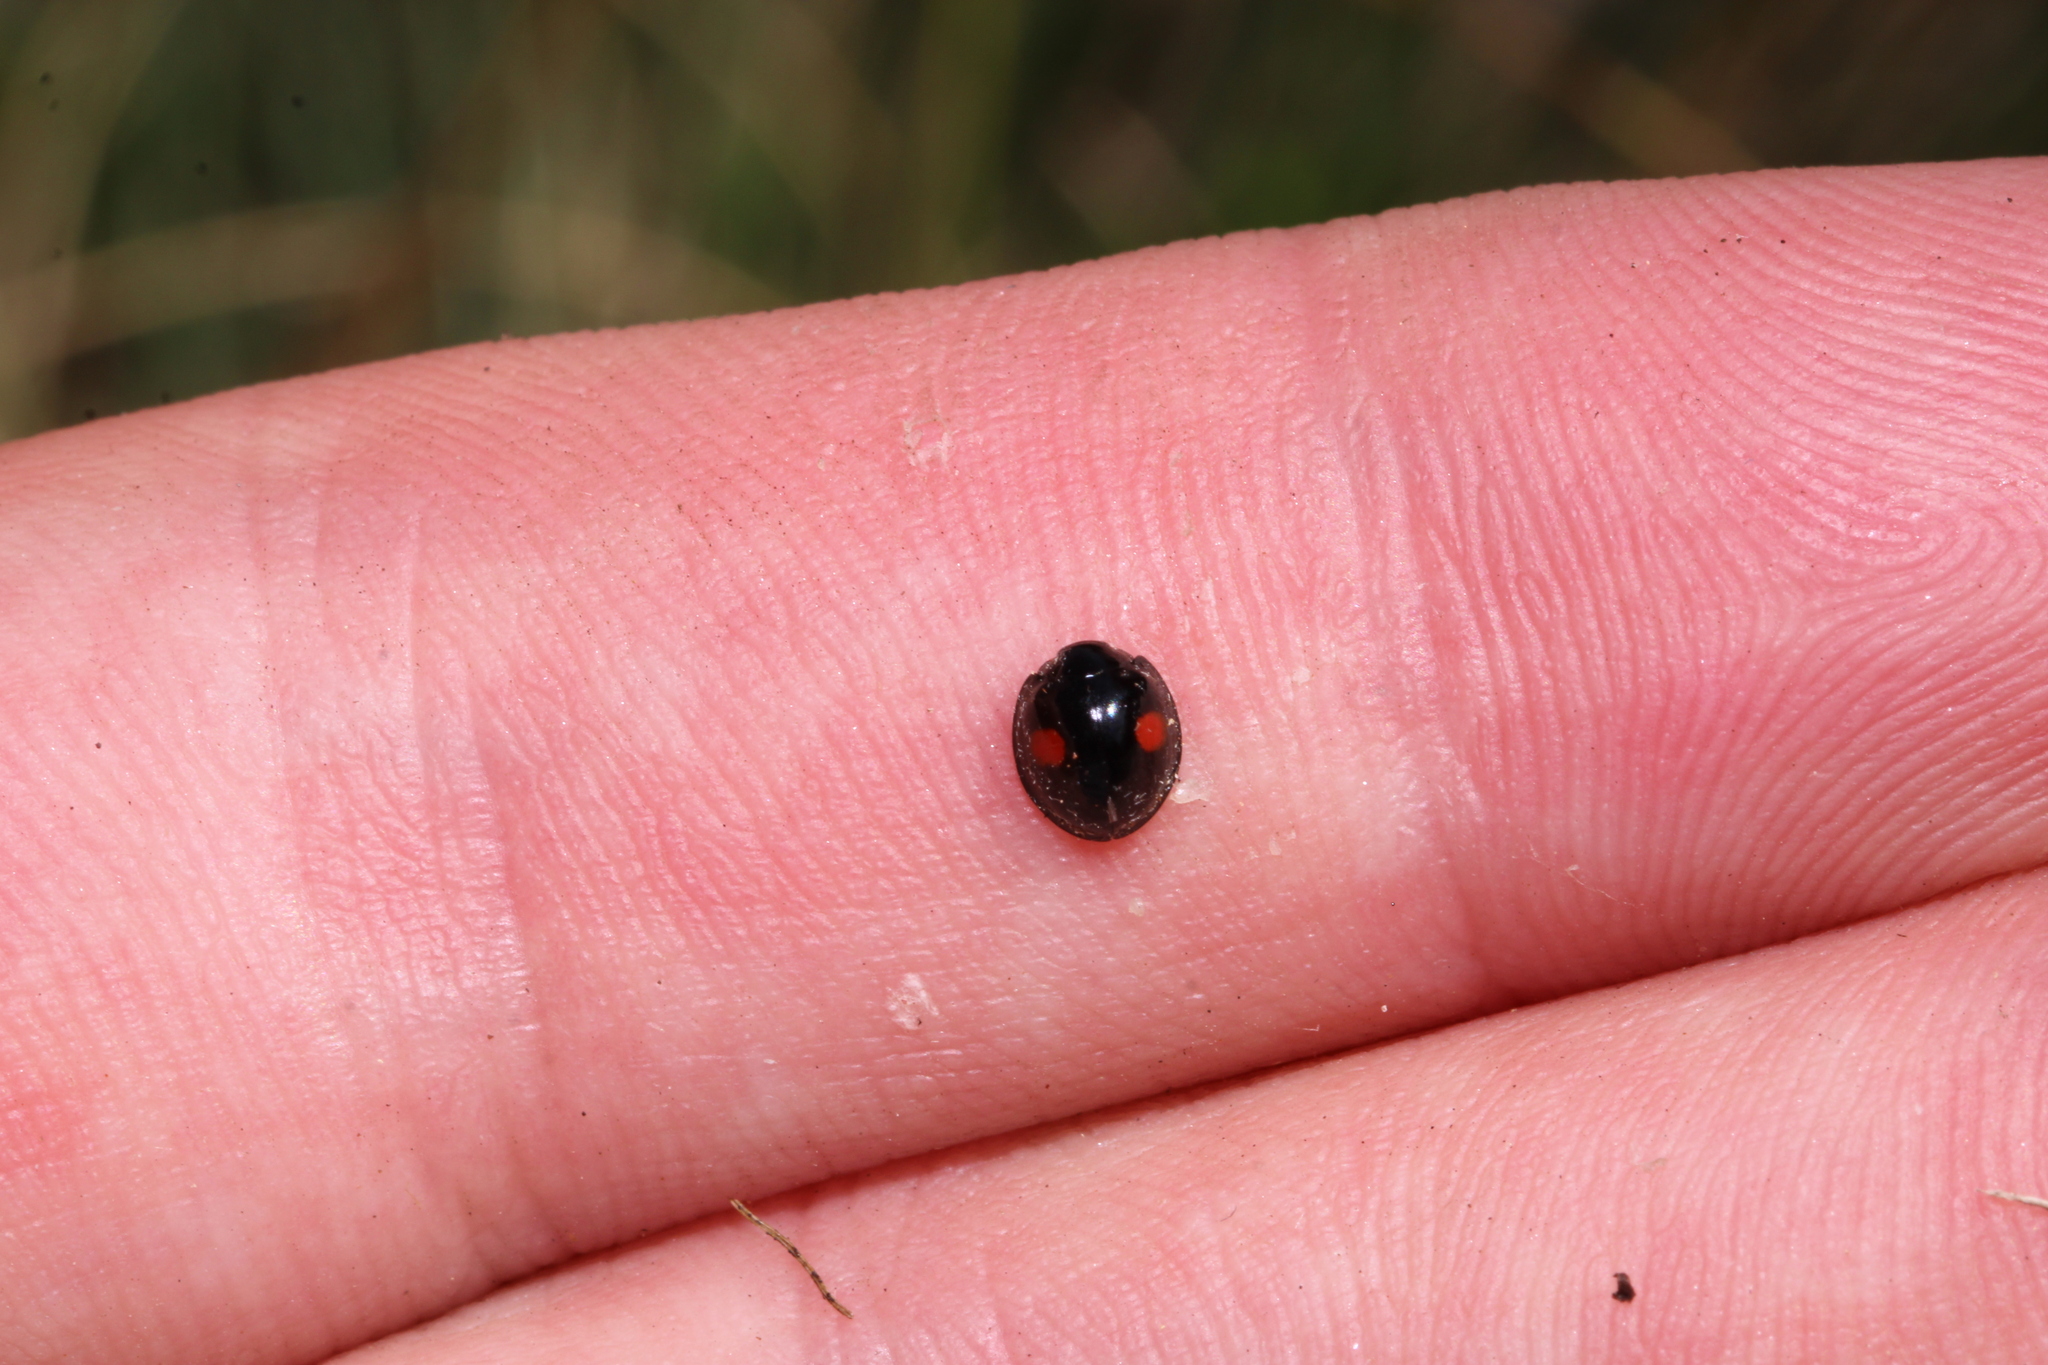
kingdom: Animalia
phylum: Arthropoda
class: Insecta
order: Coleoptera
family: Coccinellidae
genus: Chilocorus
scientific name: Chilocorus renipustulatus
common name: Kidney-spot ladybird
